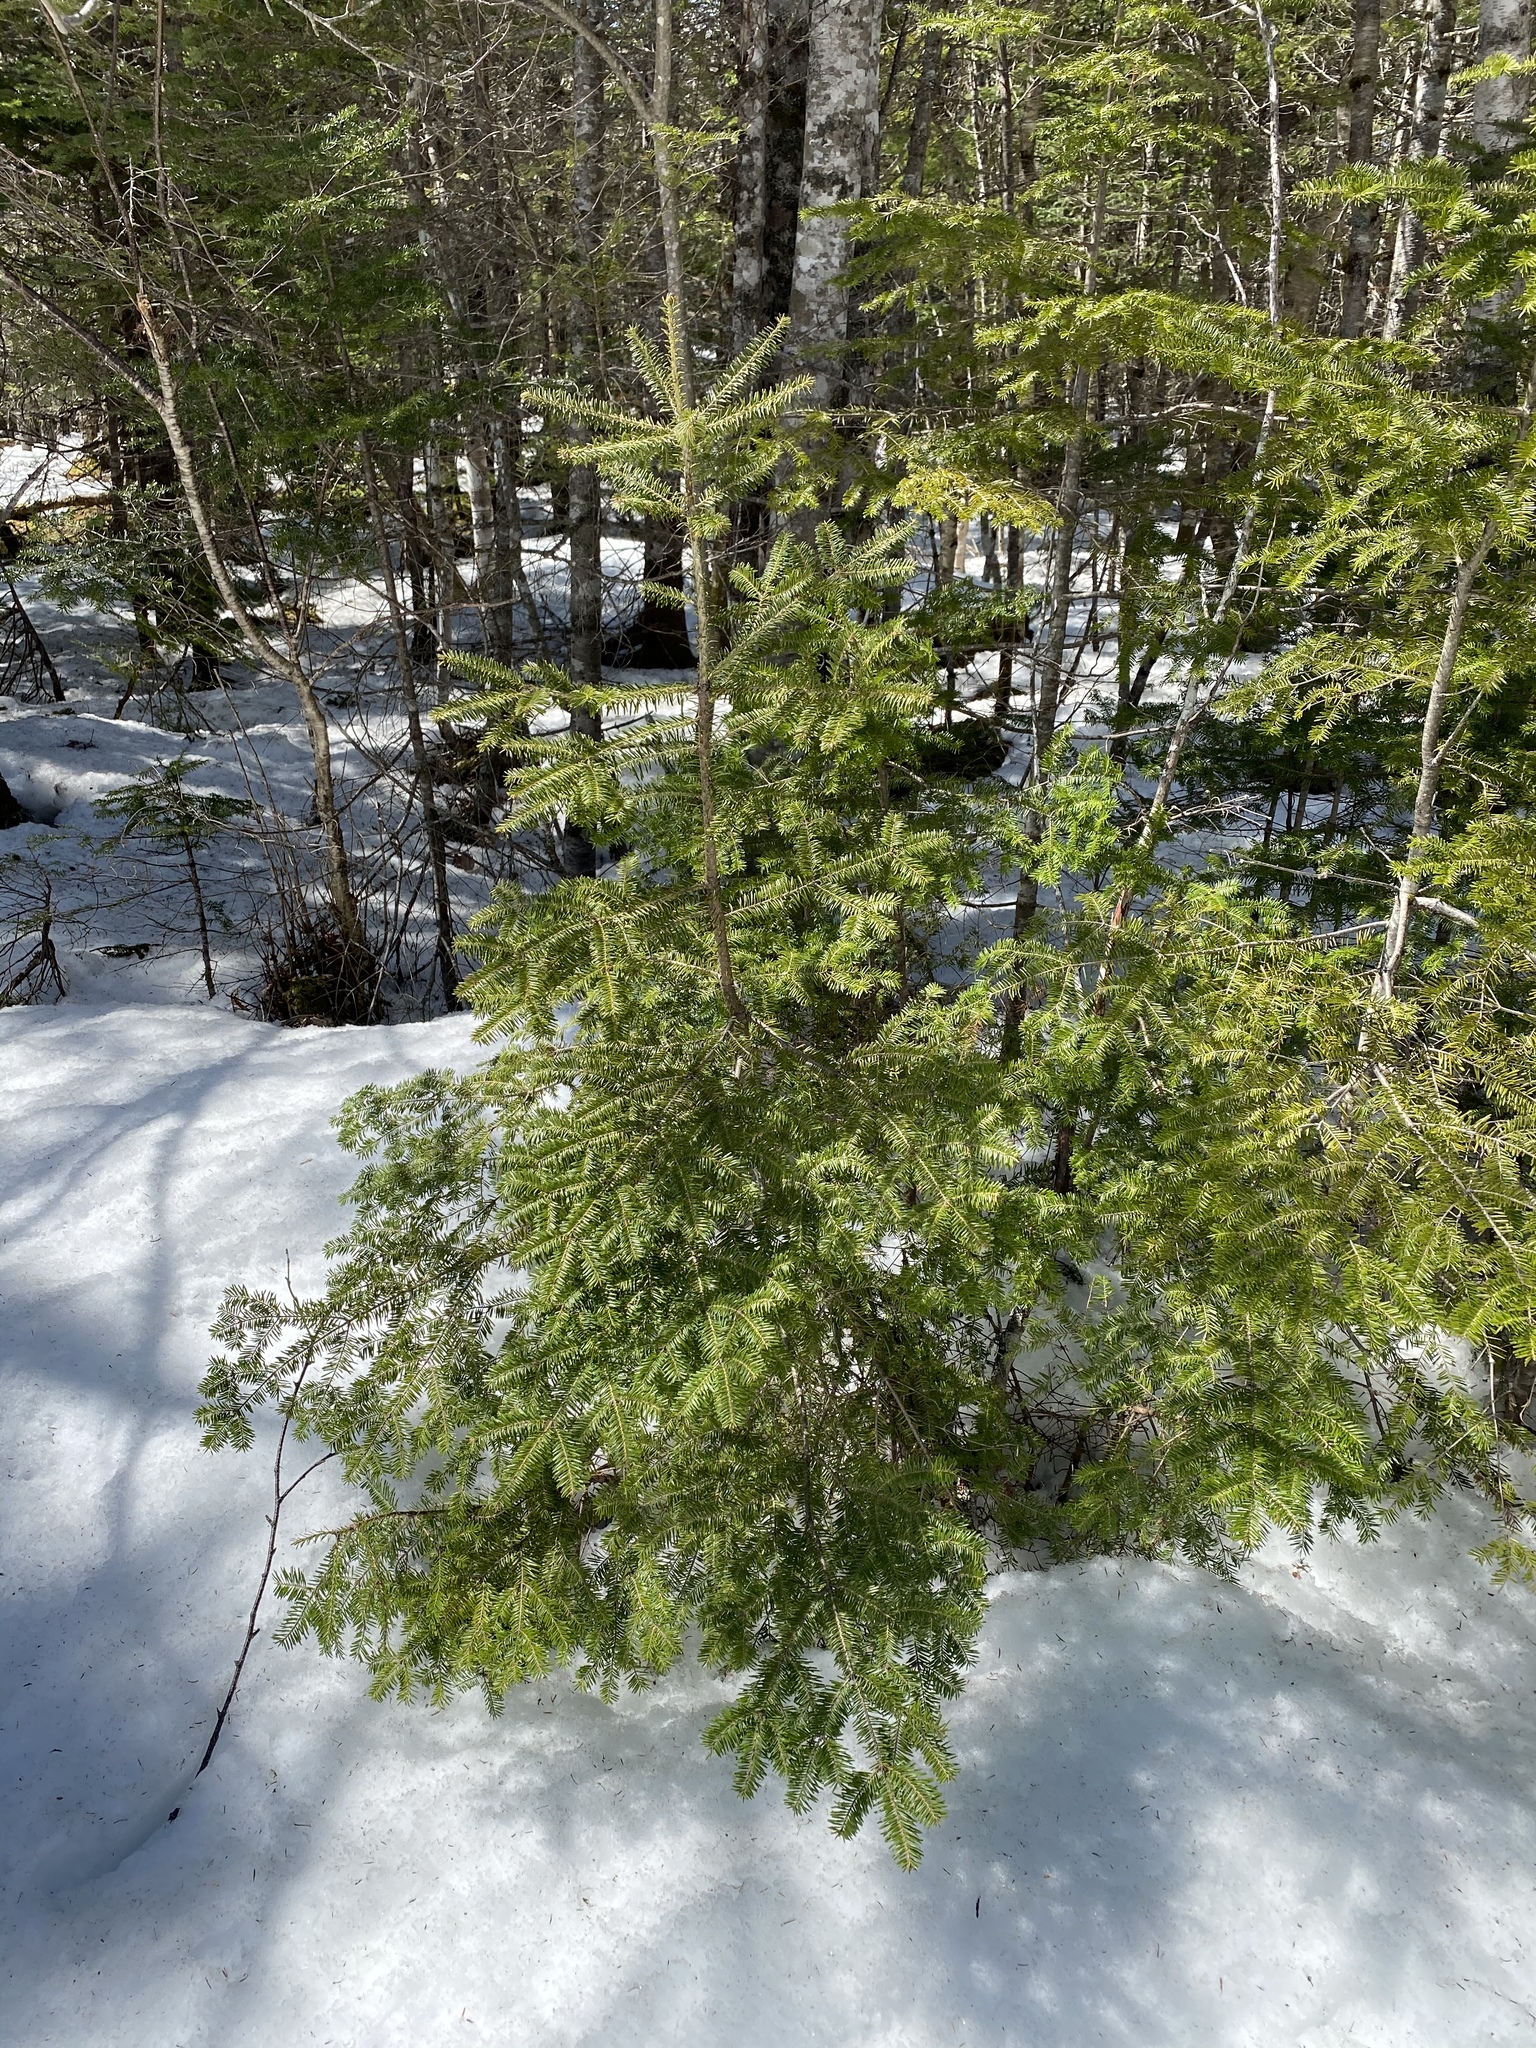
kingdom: Plantae
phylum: Tracheophyta
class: Pinopsida
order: Pinales
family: Pinaceae
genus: Abies
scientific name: Abies balsamea
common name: Balsam fir
